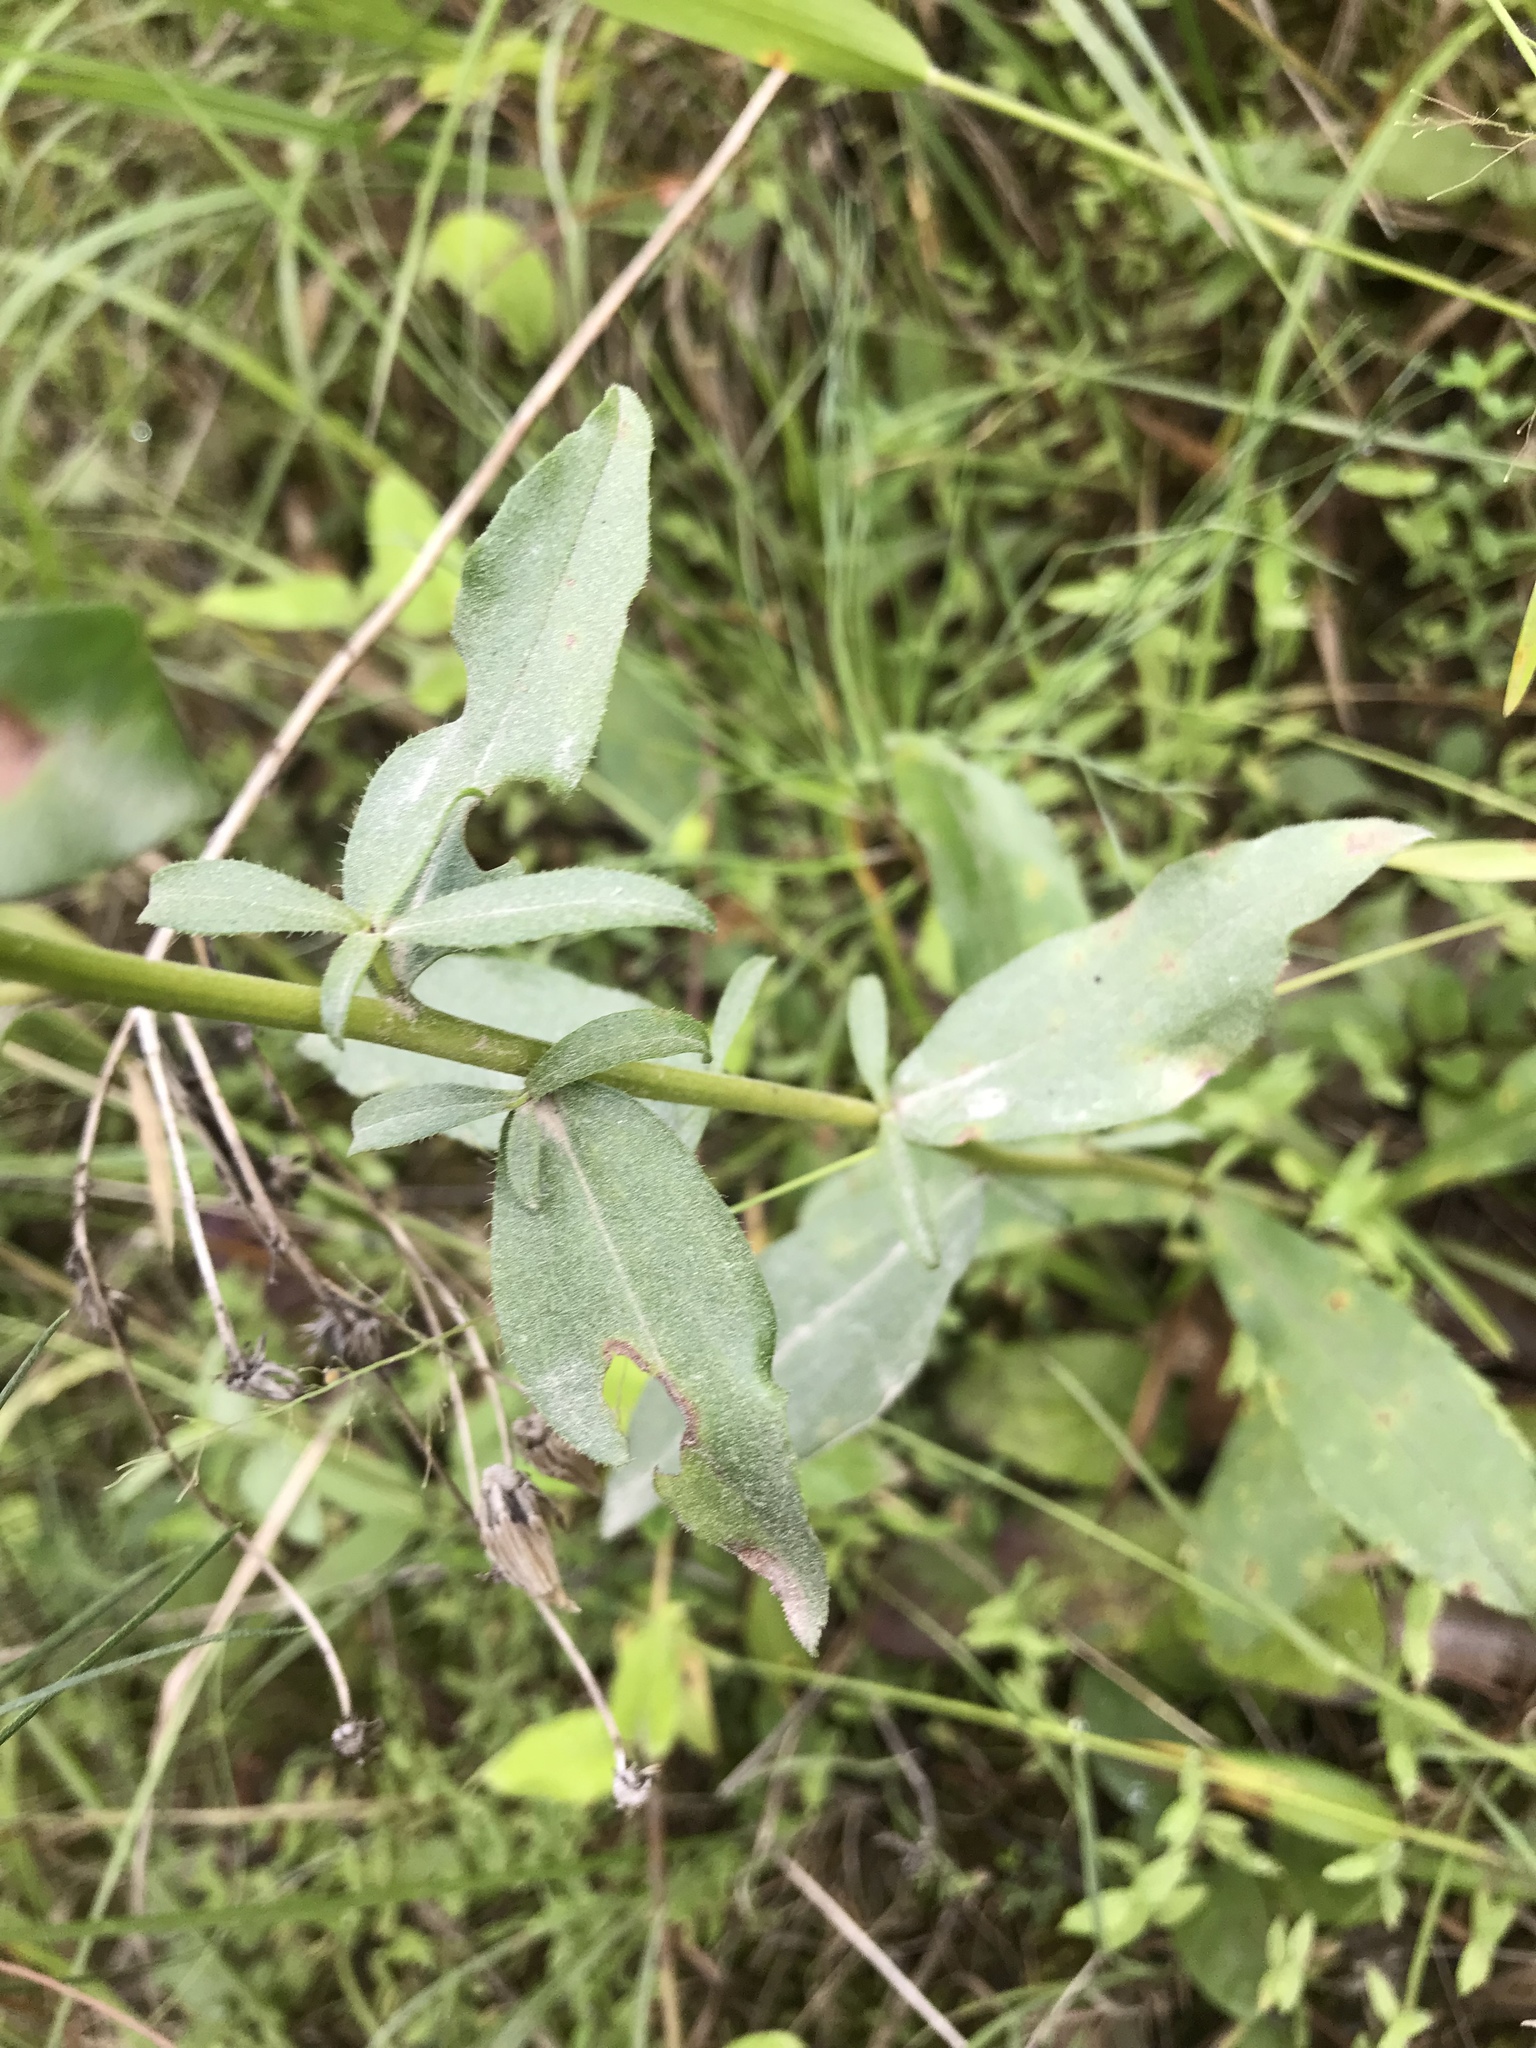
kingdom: Plantae
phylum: Tracheophyta
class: Magnoliopsida
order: Asterales
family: Asteraceae
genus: Sericocarpus
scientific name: Sericocarpus asteroides
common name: Toothed white-top aster
